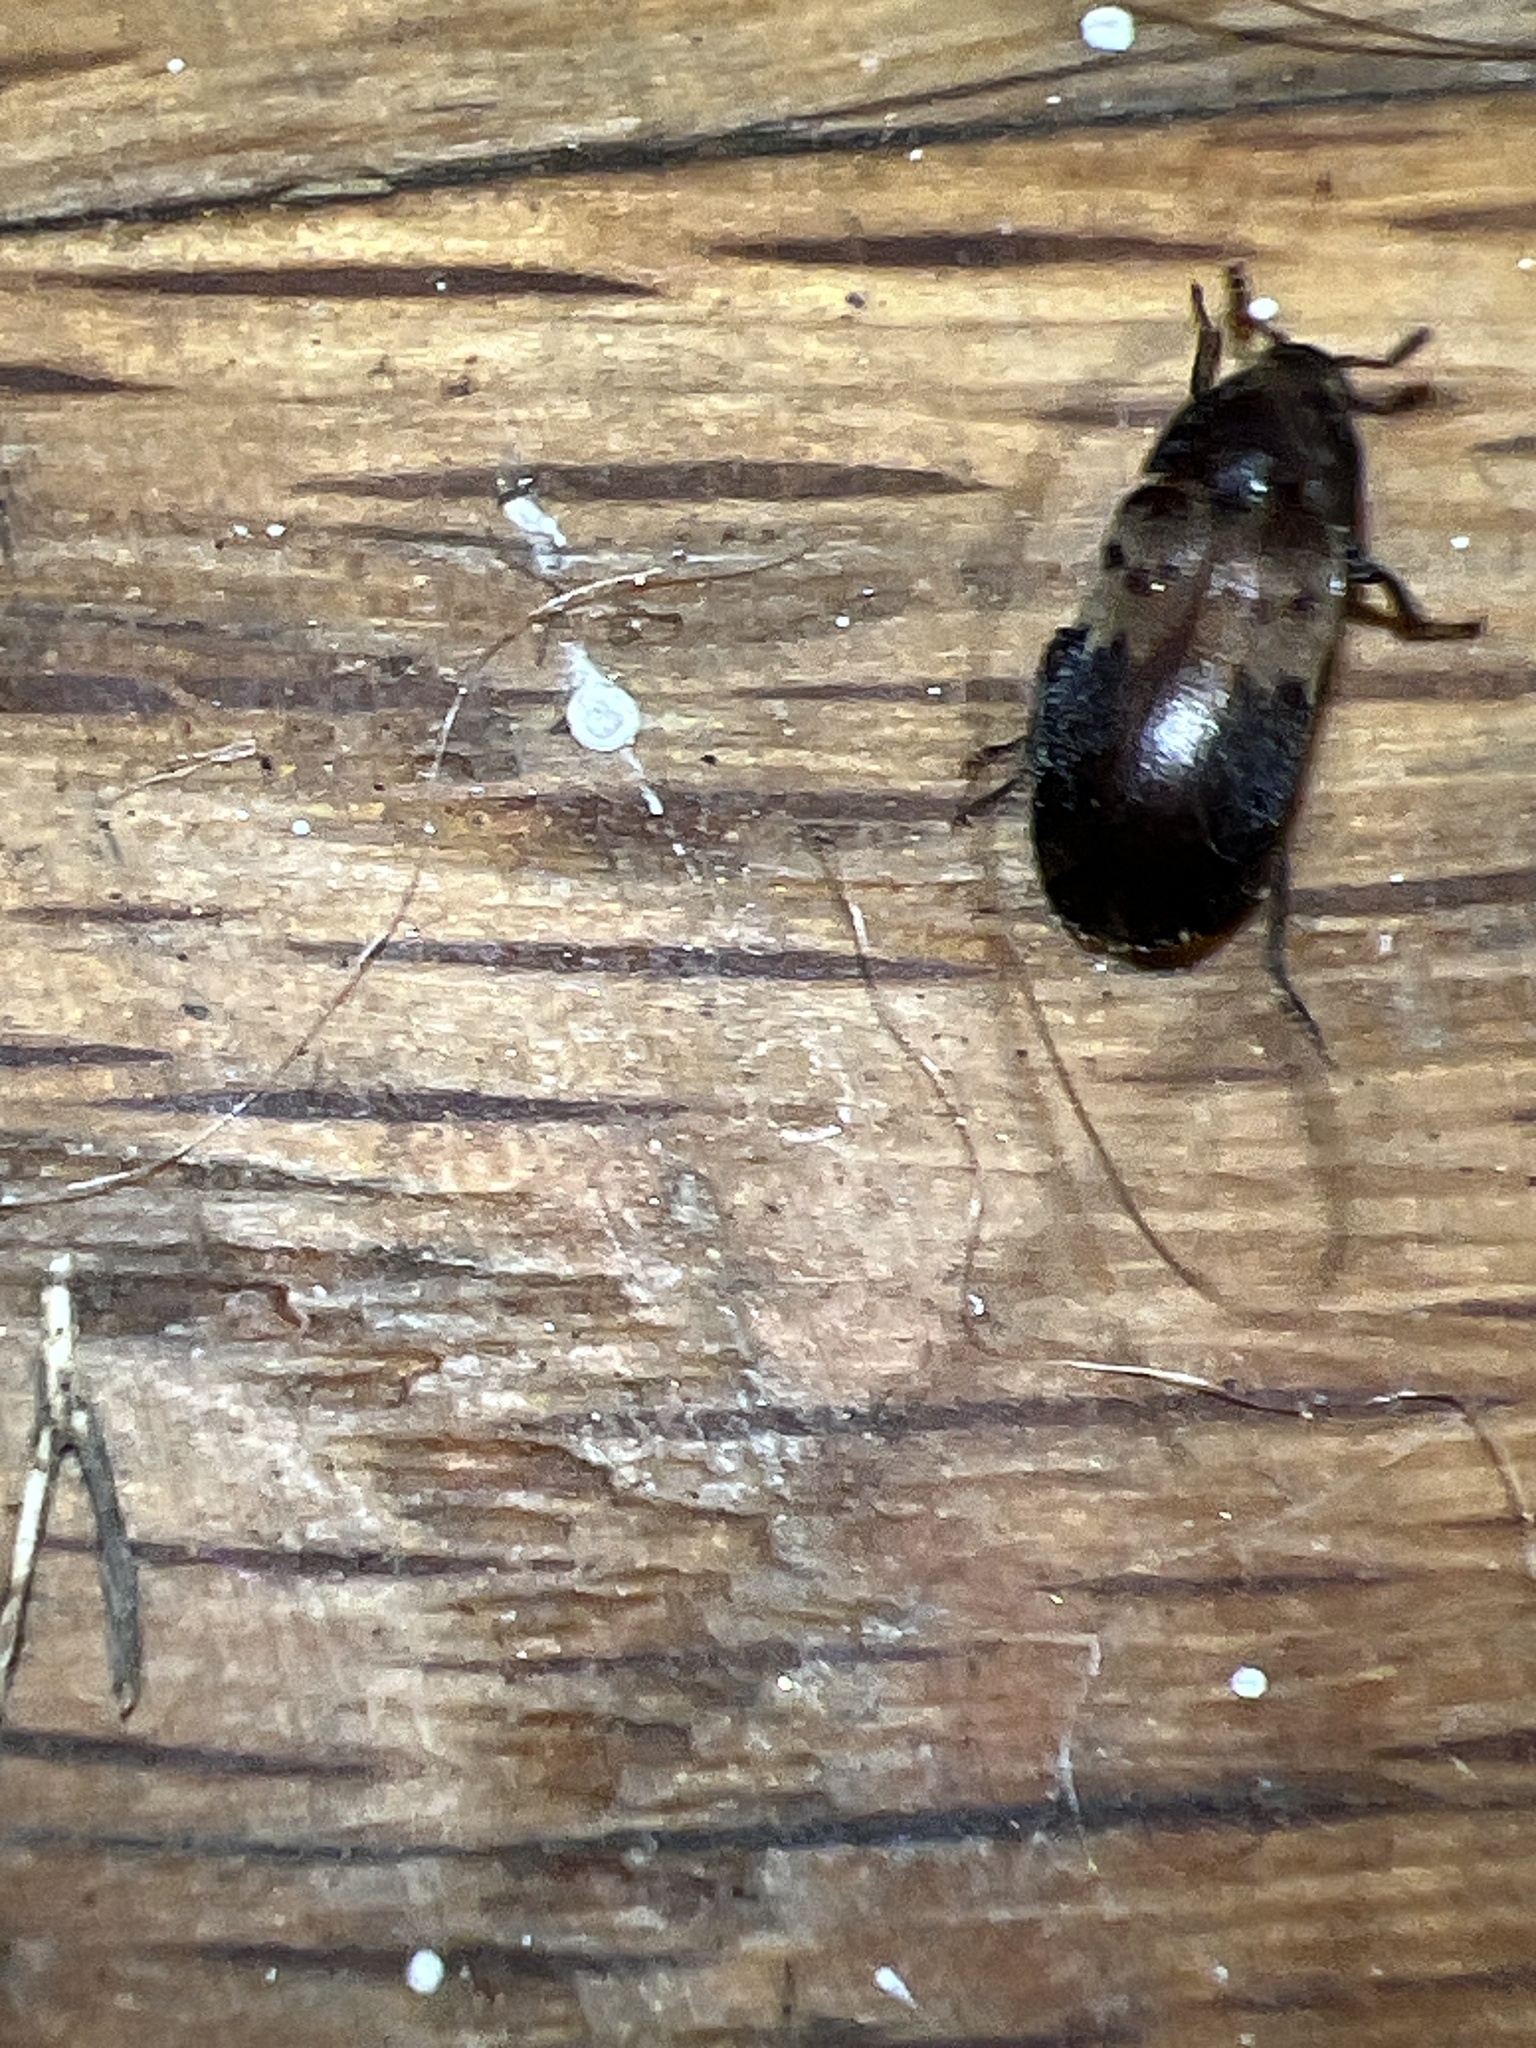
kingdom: Animalia
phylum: Arthropoda
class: Insecta
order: Coleoptera
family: Dermestidae
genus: Dermestes
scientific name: Dermestes lardarius
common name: Larder beetle
